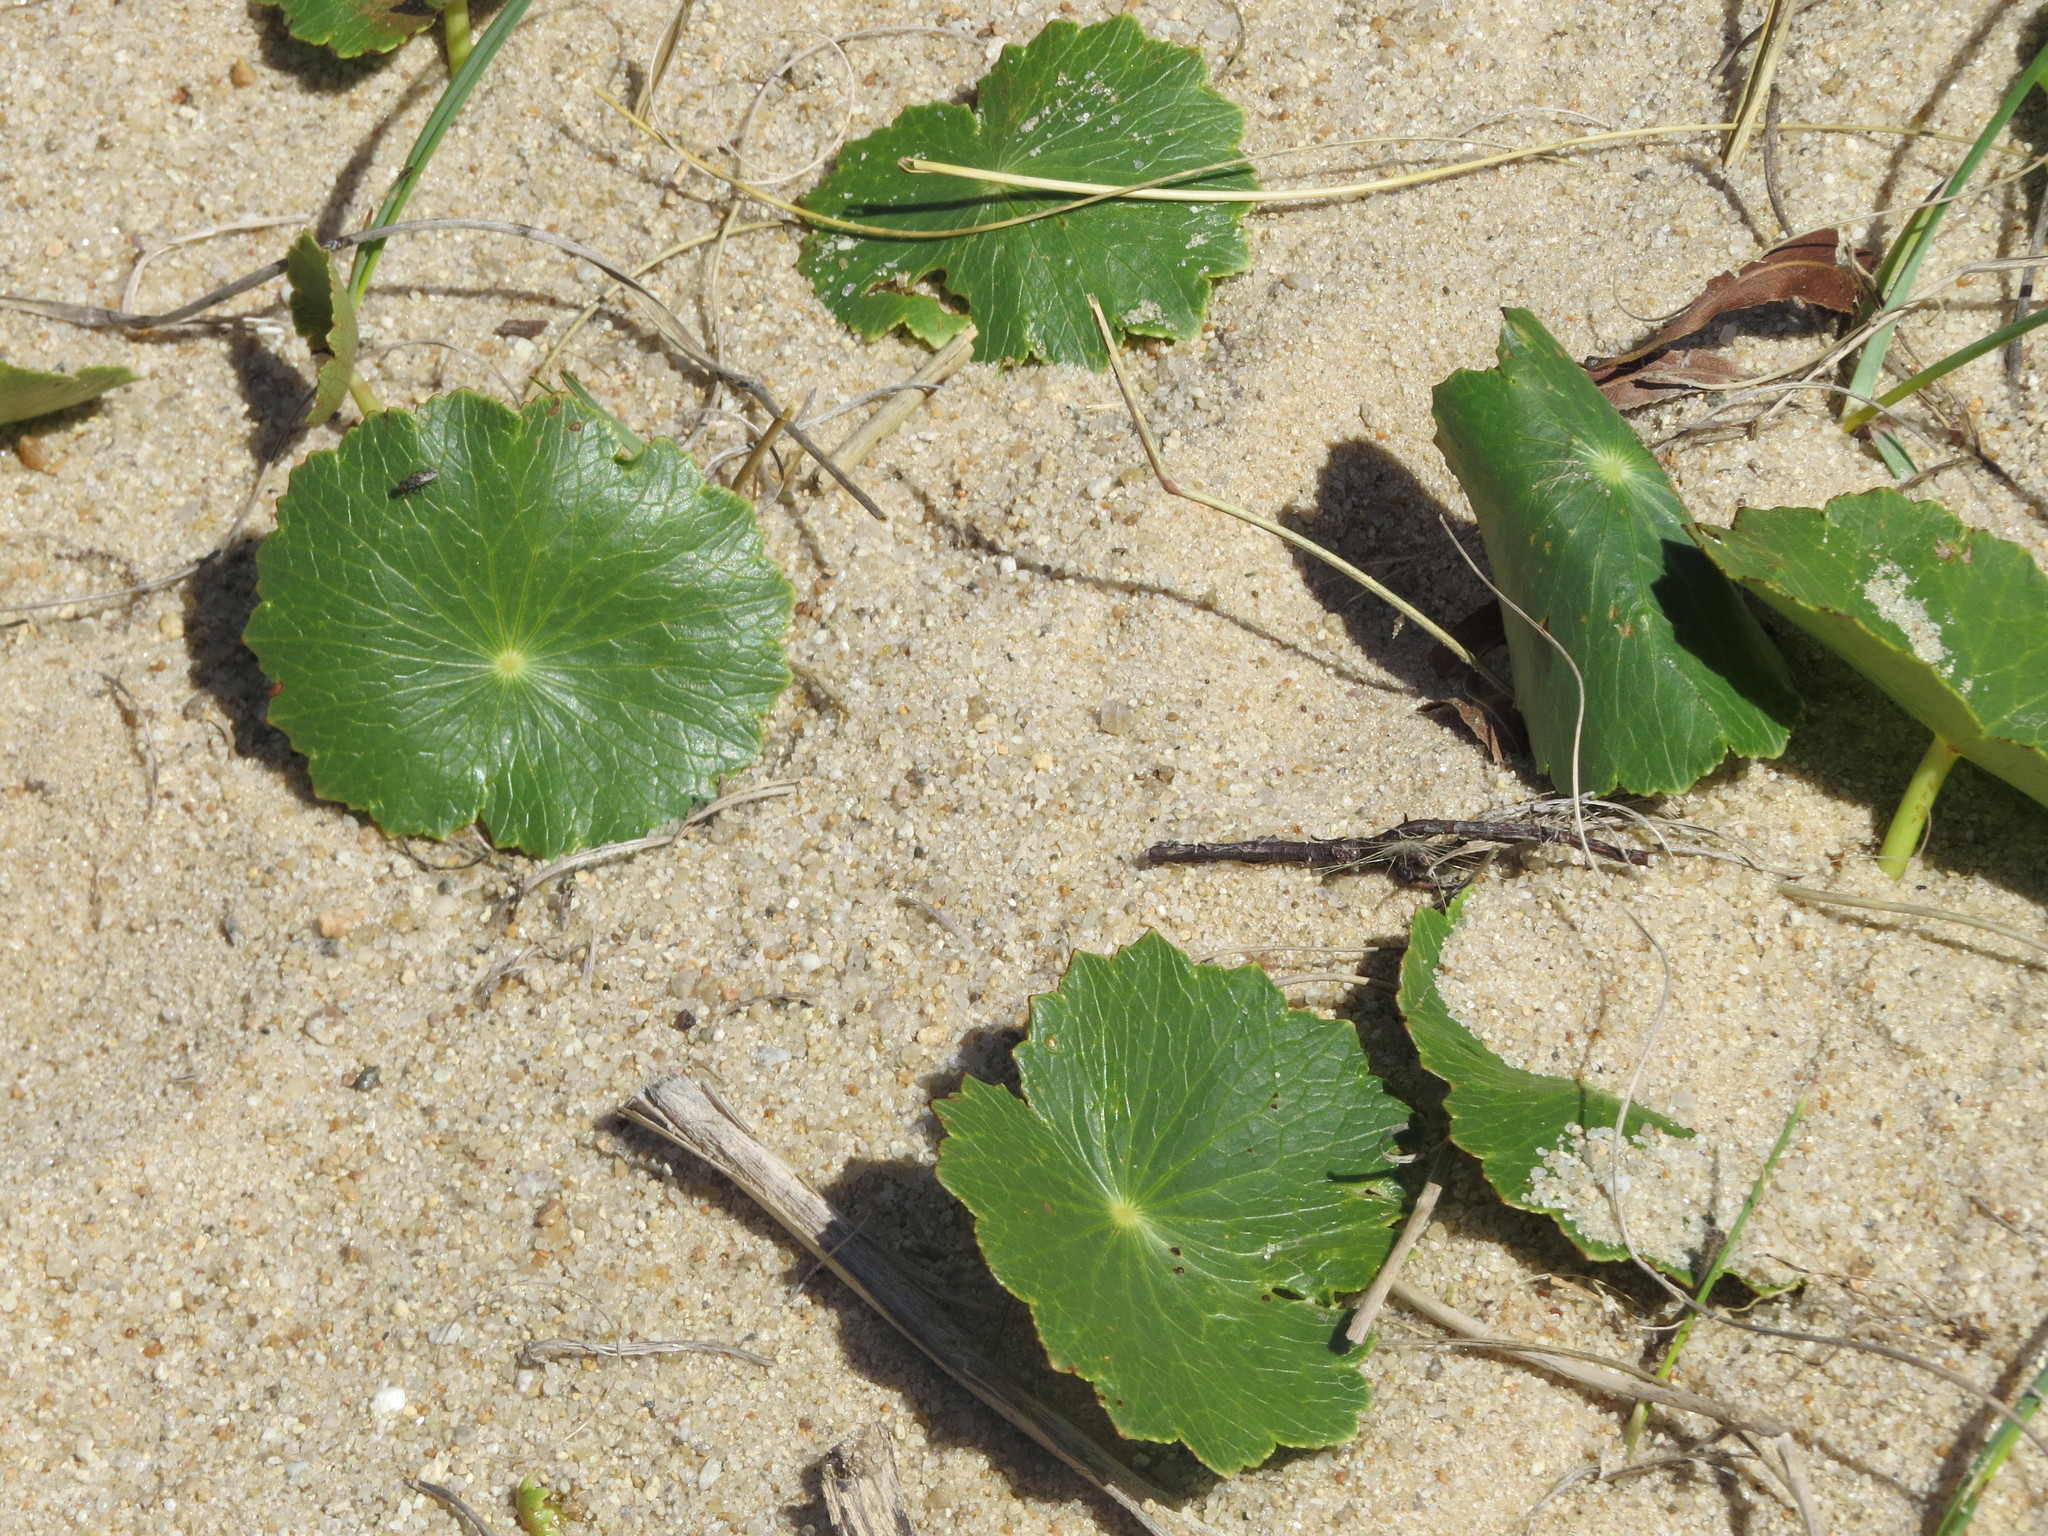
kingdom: Plantae
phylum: Tracheophyta
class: Magnoliopsida
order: Apiales
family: Araliaceae
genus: Hydrocotyle
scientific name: Hydrocotyle bonariensis
